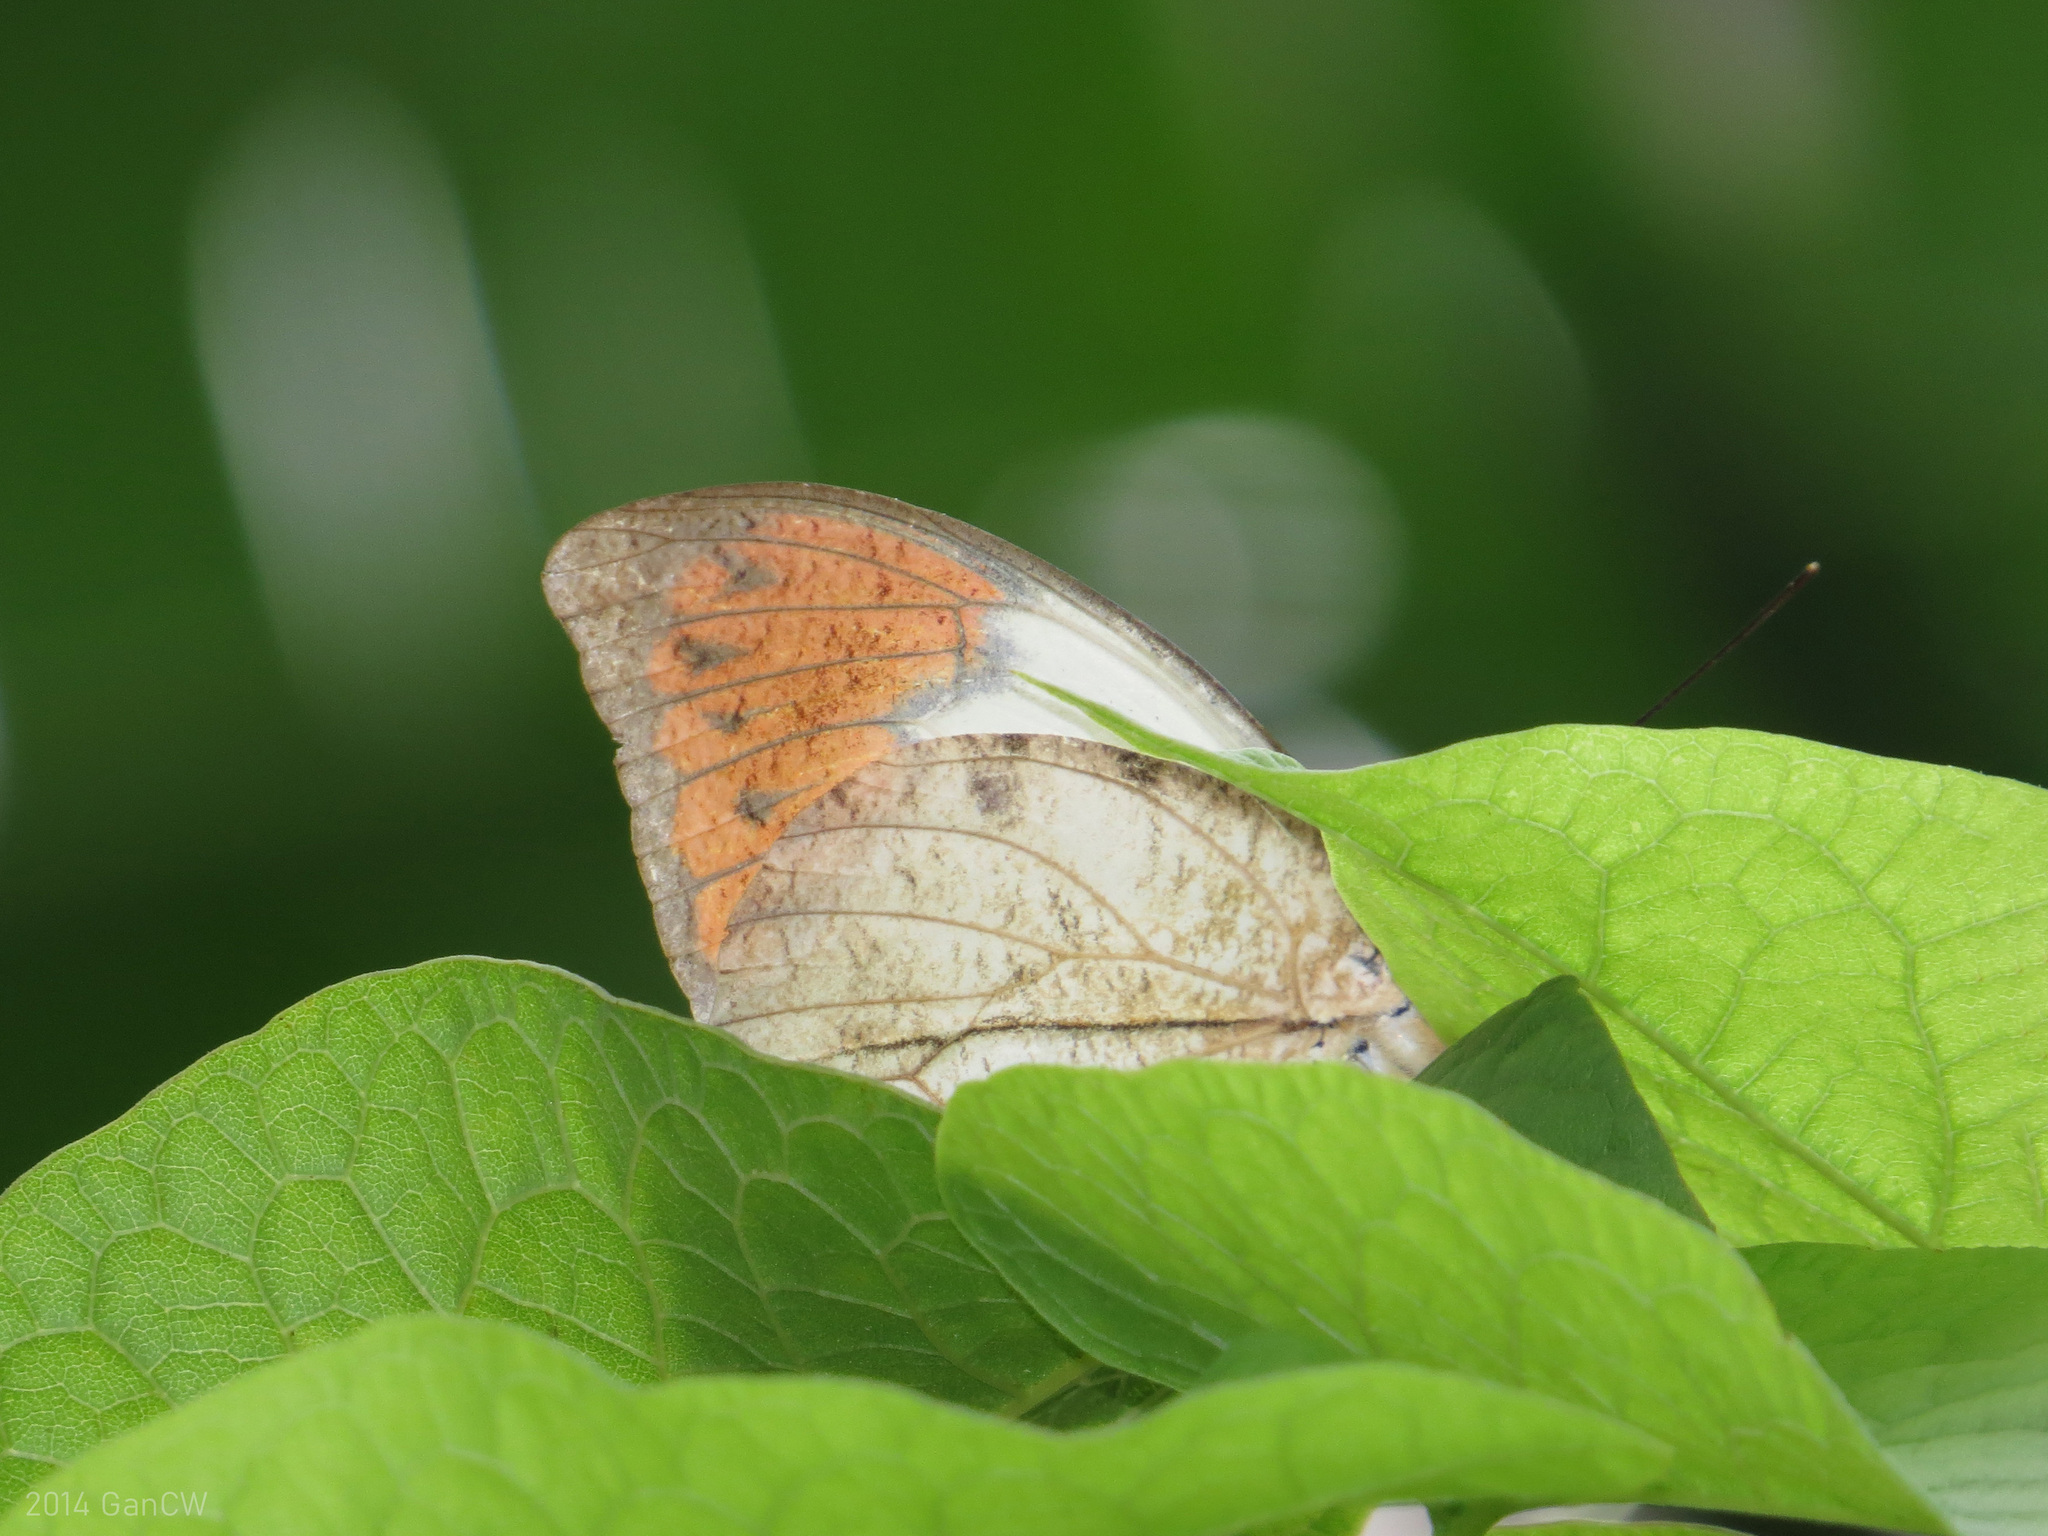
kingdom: Animalia
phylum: Arthropoda
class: Insecta
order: Lepidoptera
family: Pieridae
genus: Hebomoia
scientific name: Hebomoia glaucippe
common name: Great orange tip
